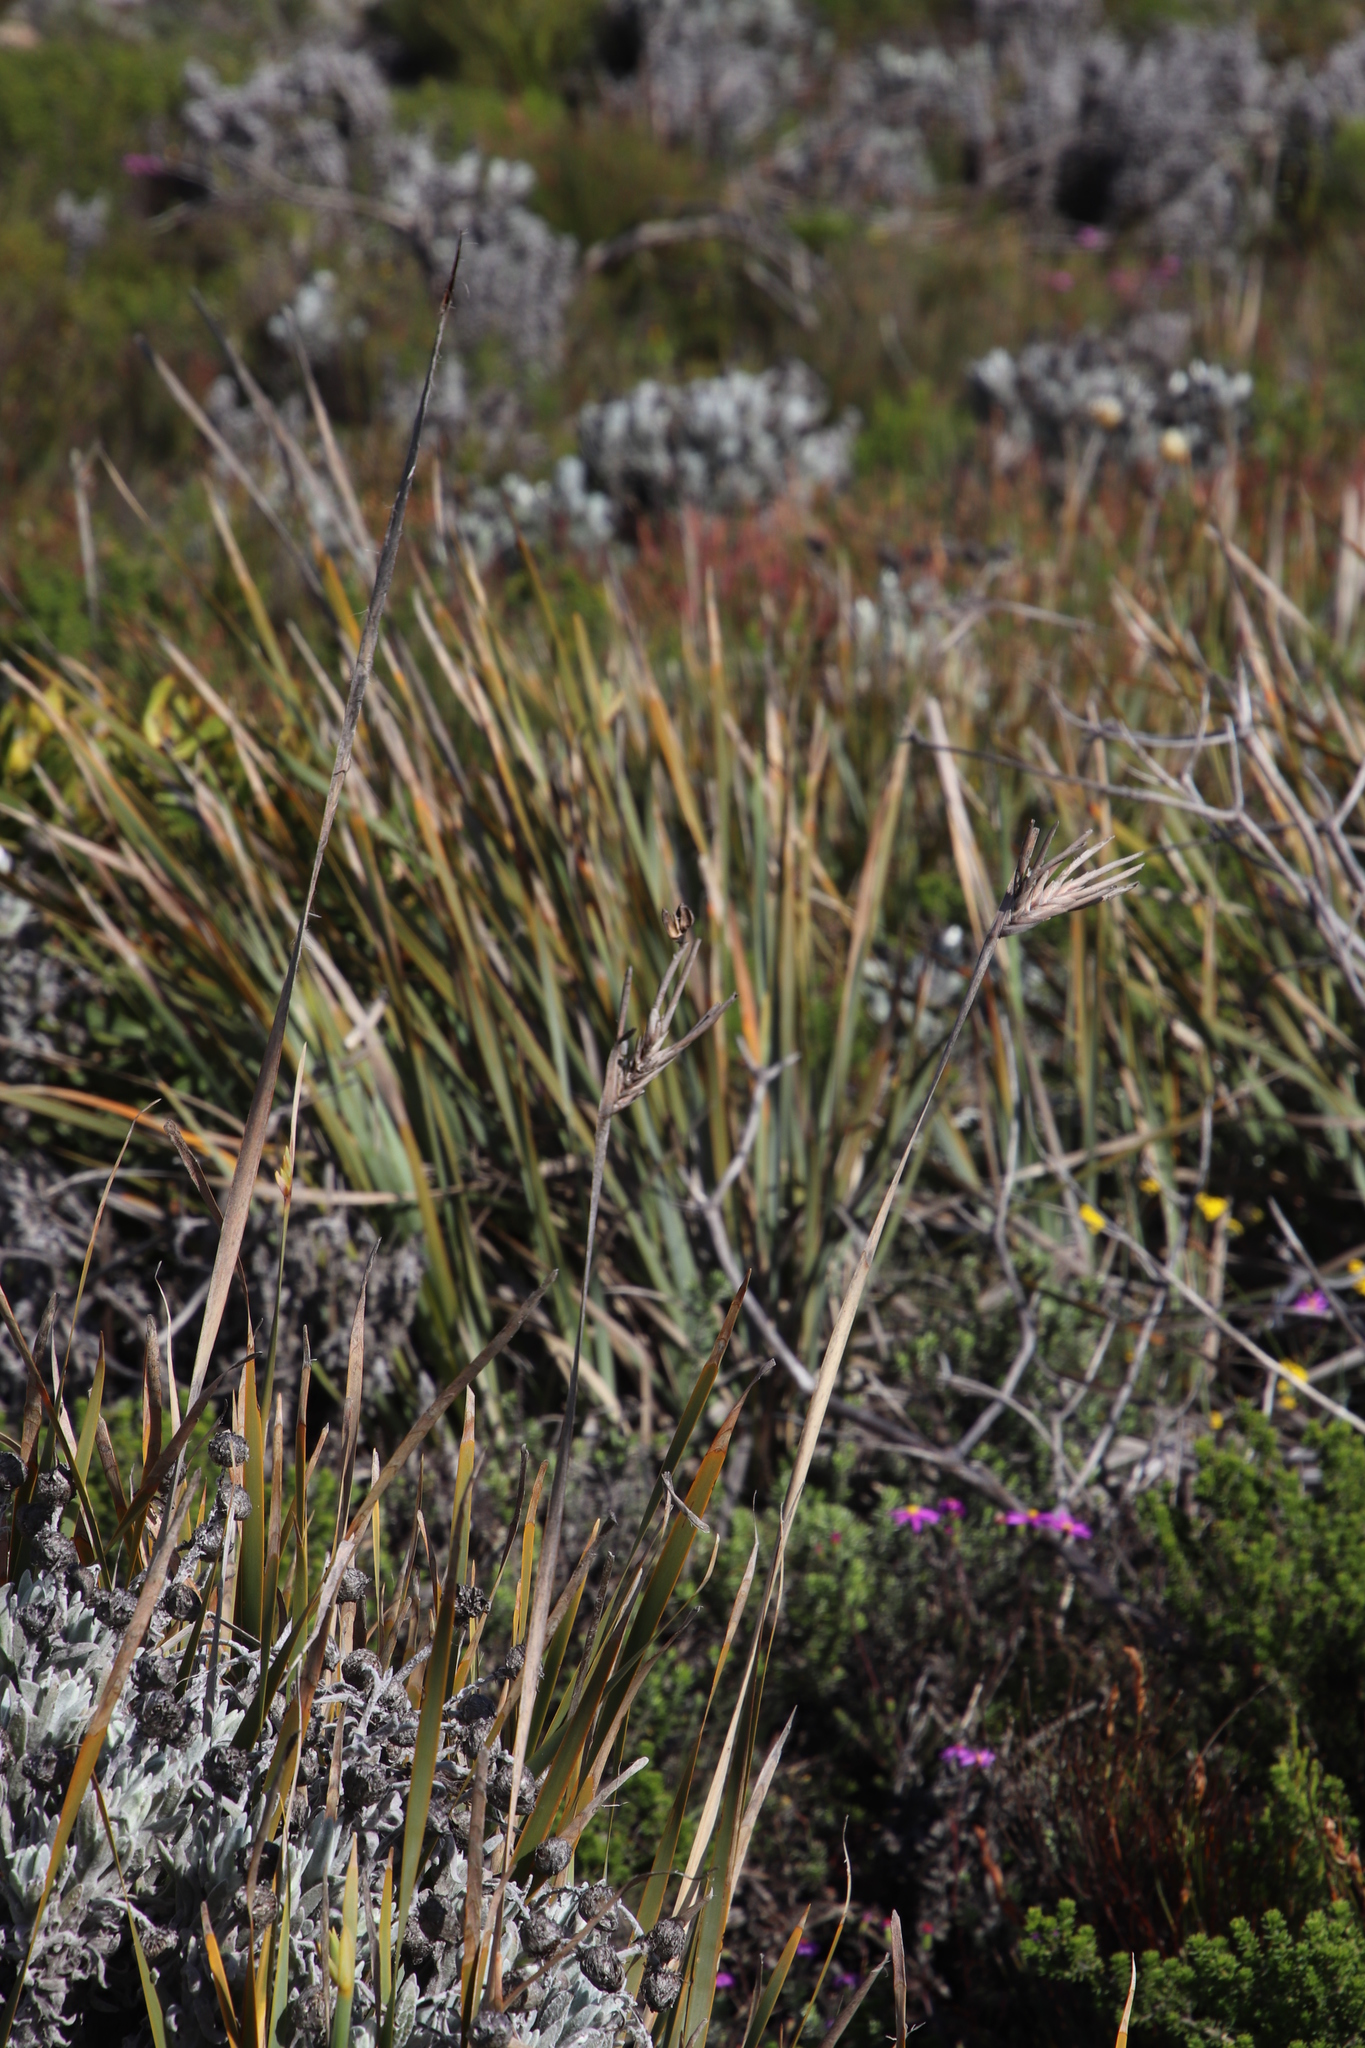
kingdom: Plantae
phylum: Tracheophyta
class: Liliopsida
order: Asparagales
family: Iridaceae
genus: Bobartia
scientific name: Bobartia gladiata
